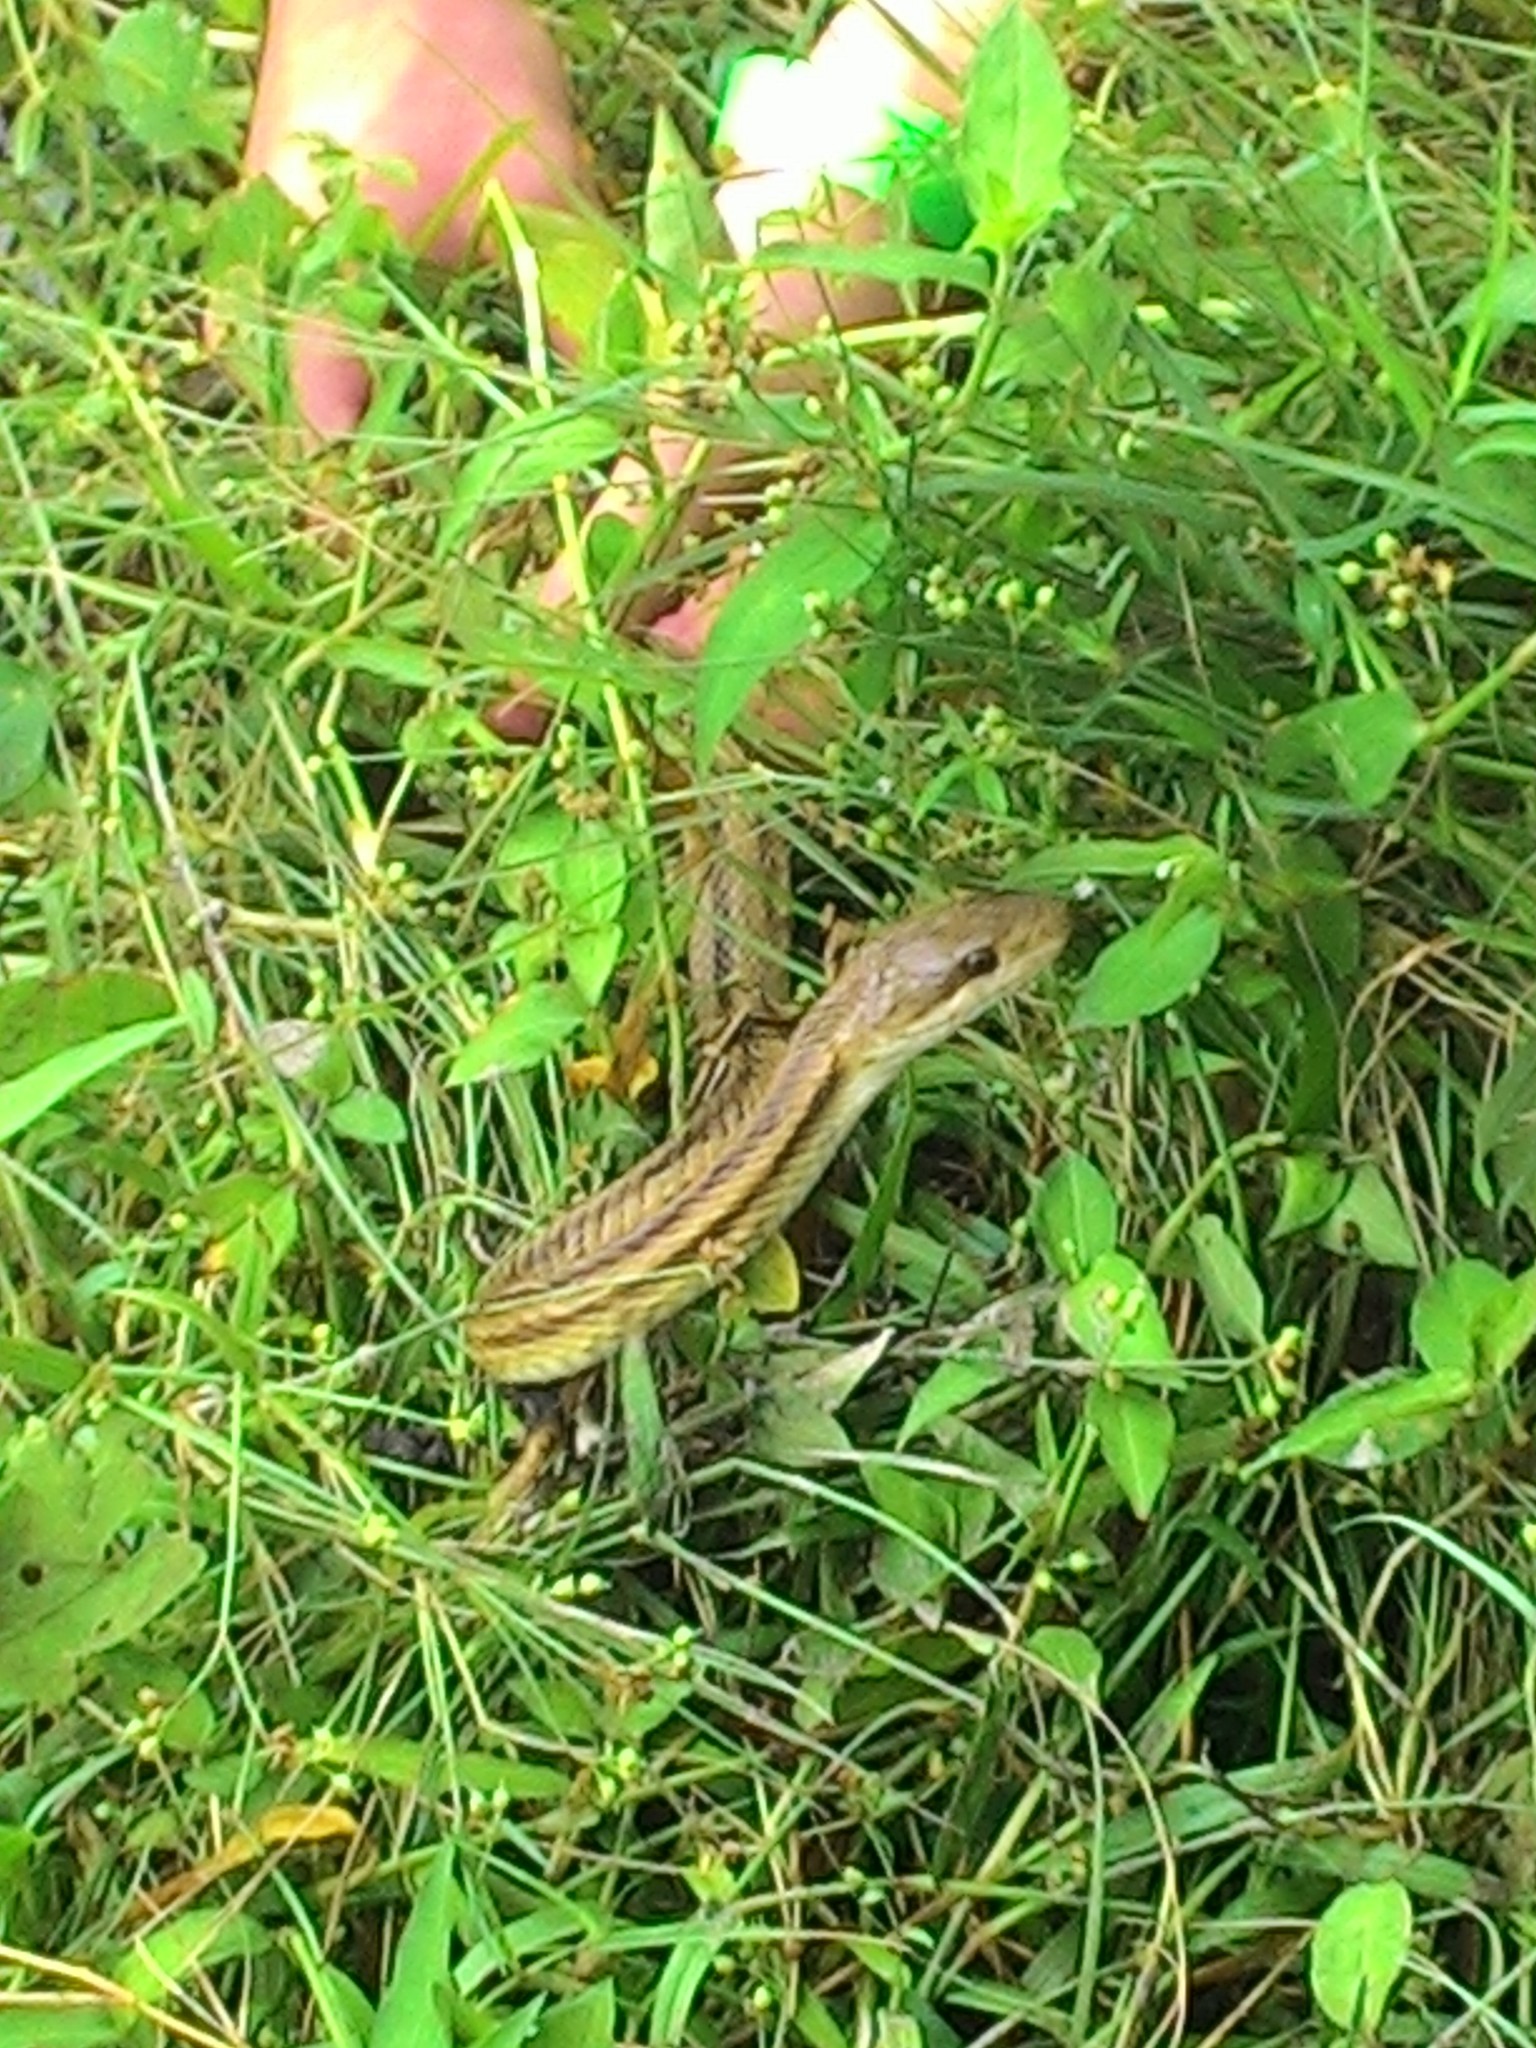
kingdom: Animalia
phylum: Chordata
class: Squamata
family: Colubridae
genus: Pantherophis
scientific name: Pantherophis alleghaniensis
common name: Eastern rat snake
